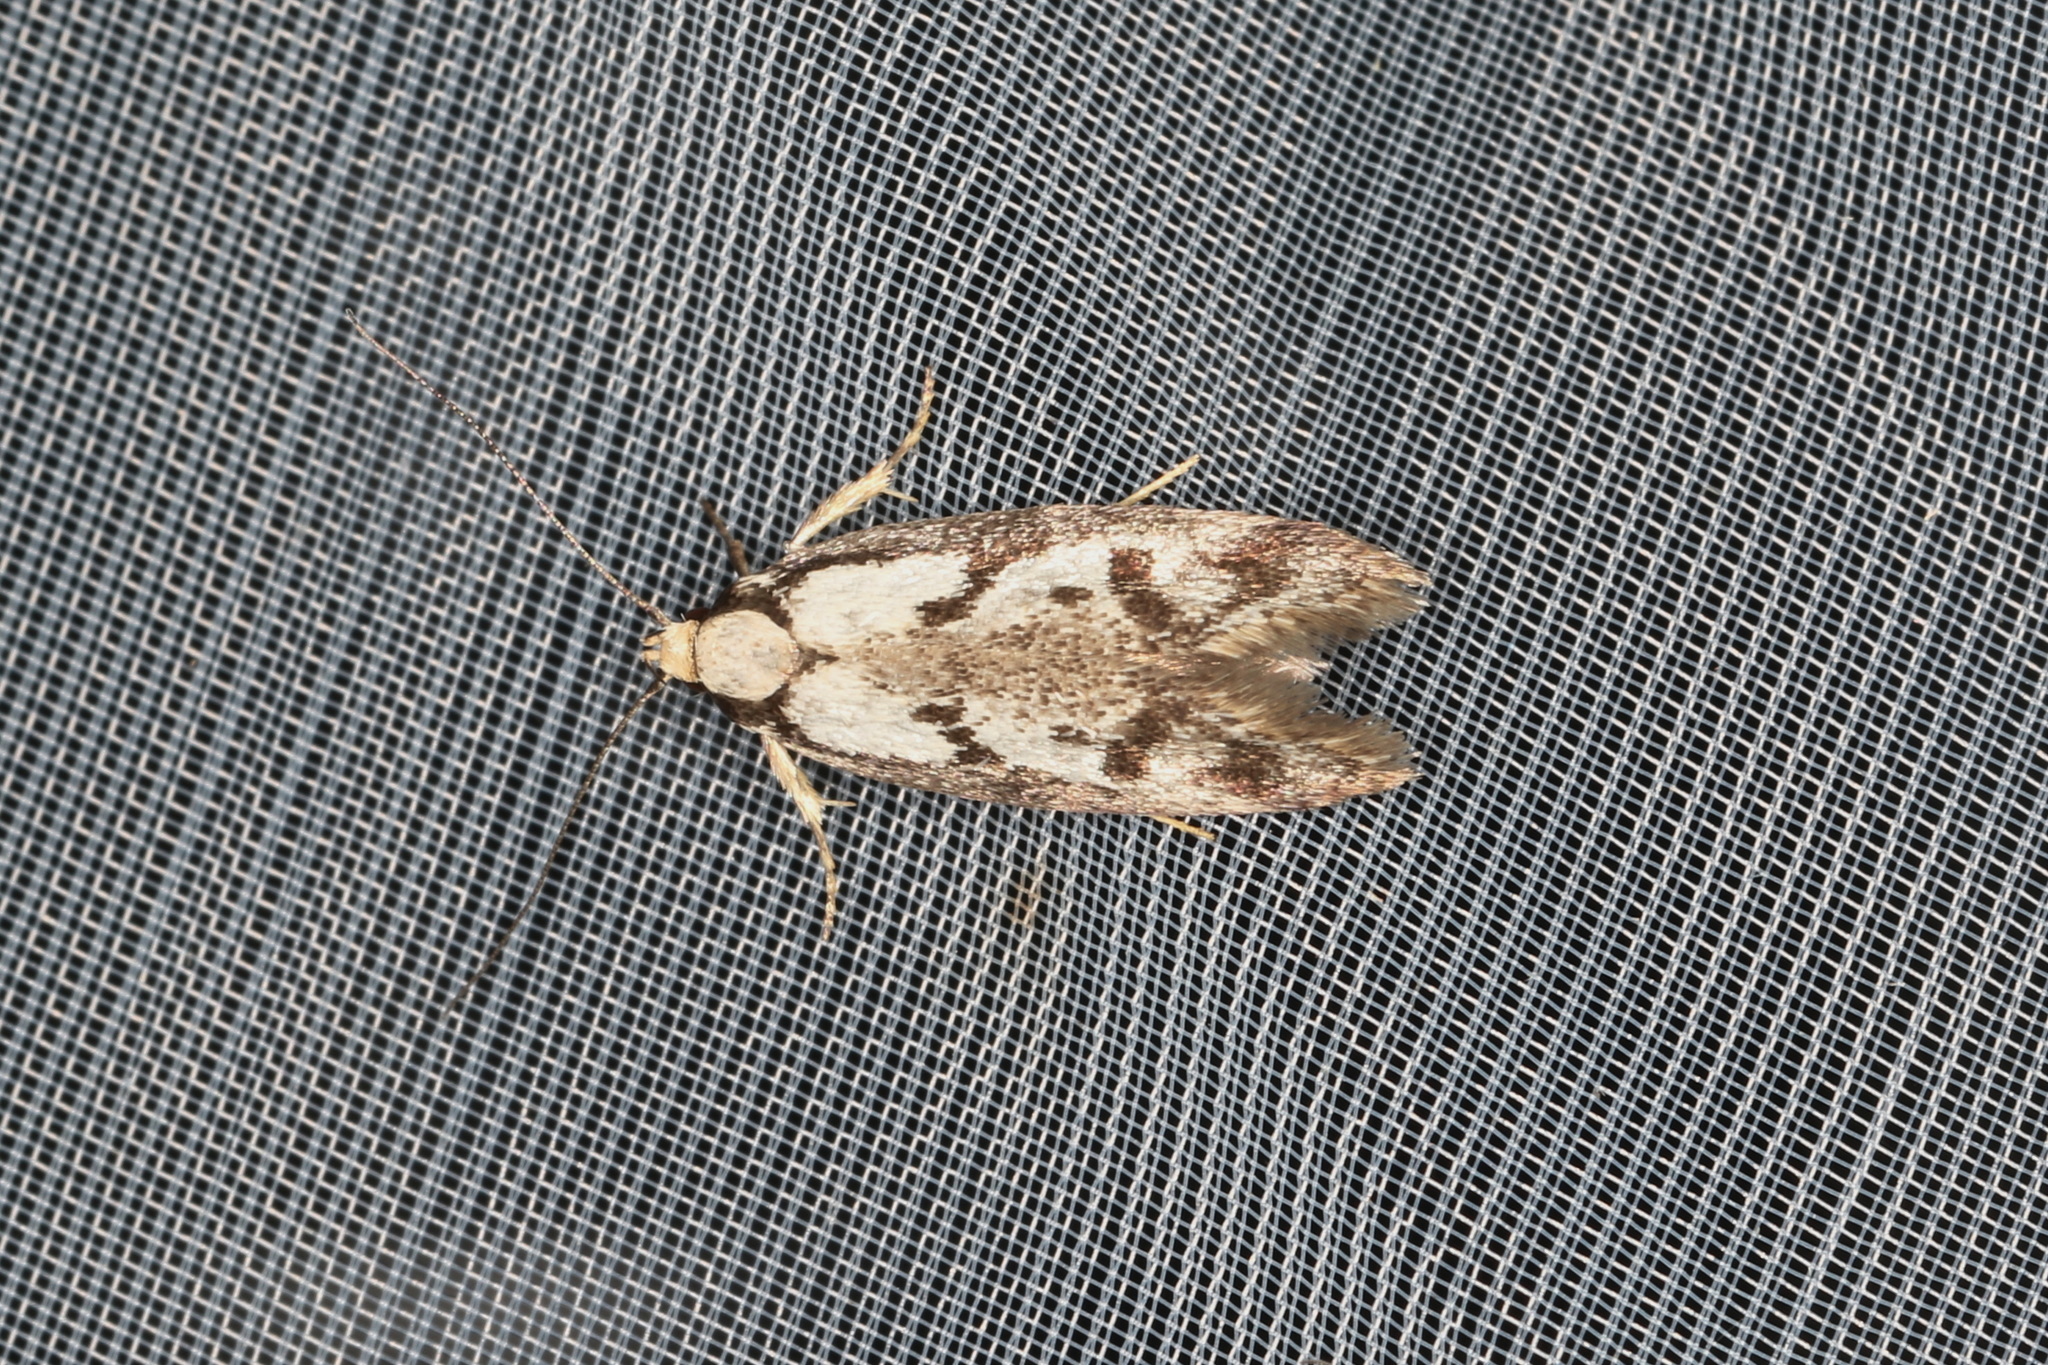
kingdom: Animalia
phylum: Arthropoda
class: Insecta
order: Lepidoptera
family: Oecophoridae
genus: Eusemocosma
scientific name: Eusemocosma pruinosa
